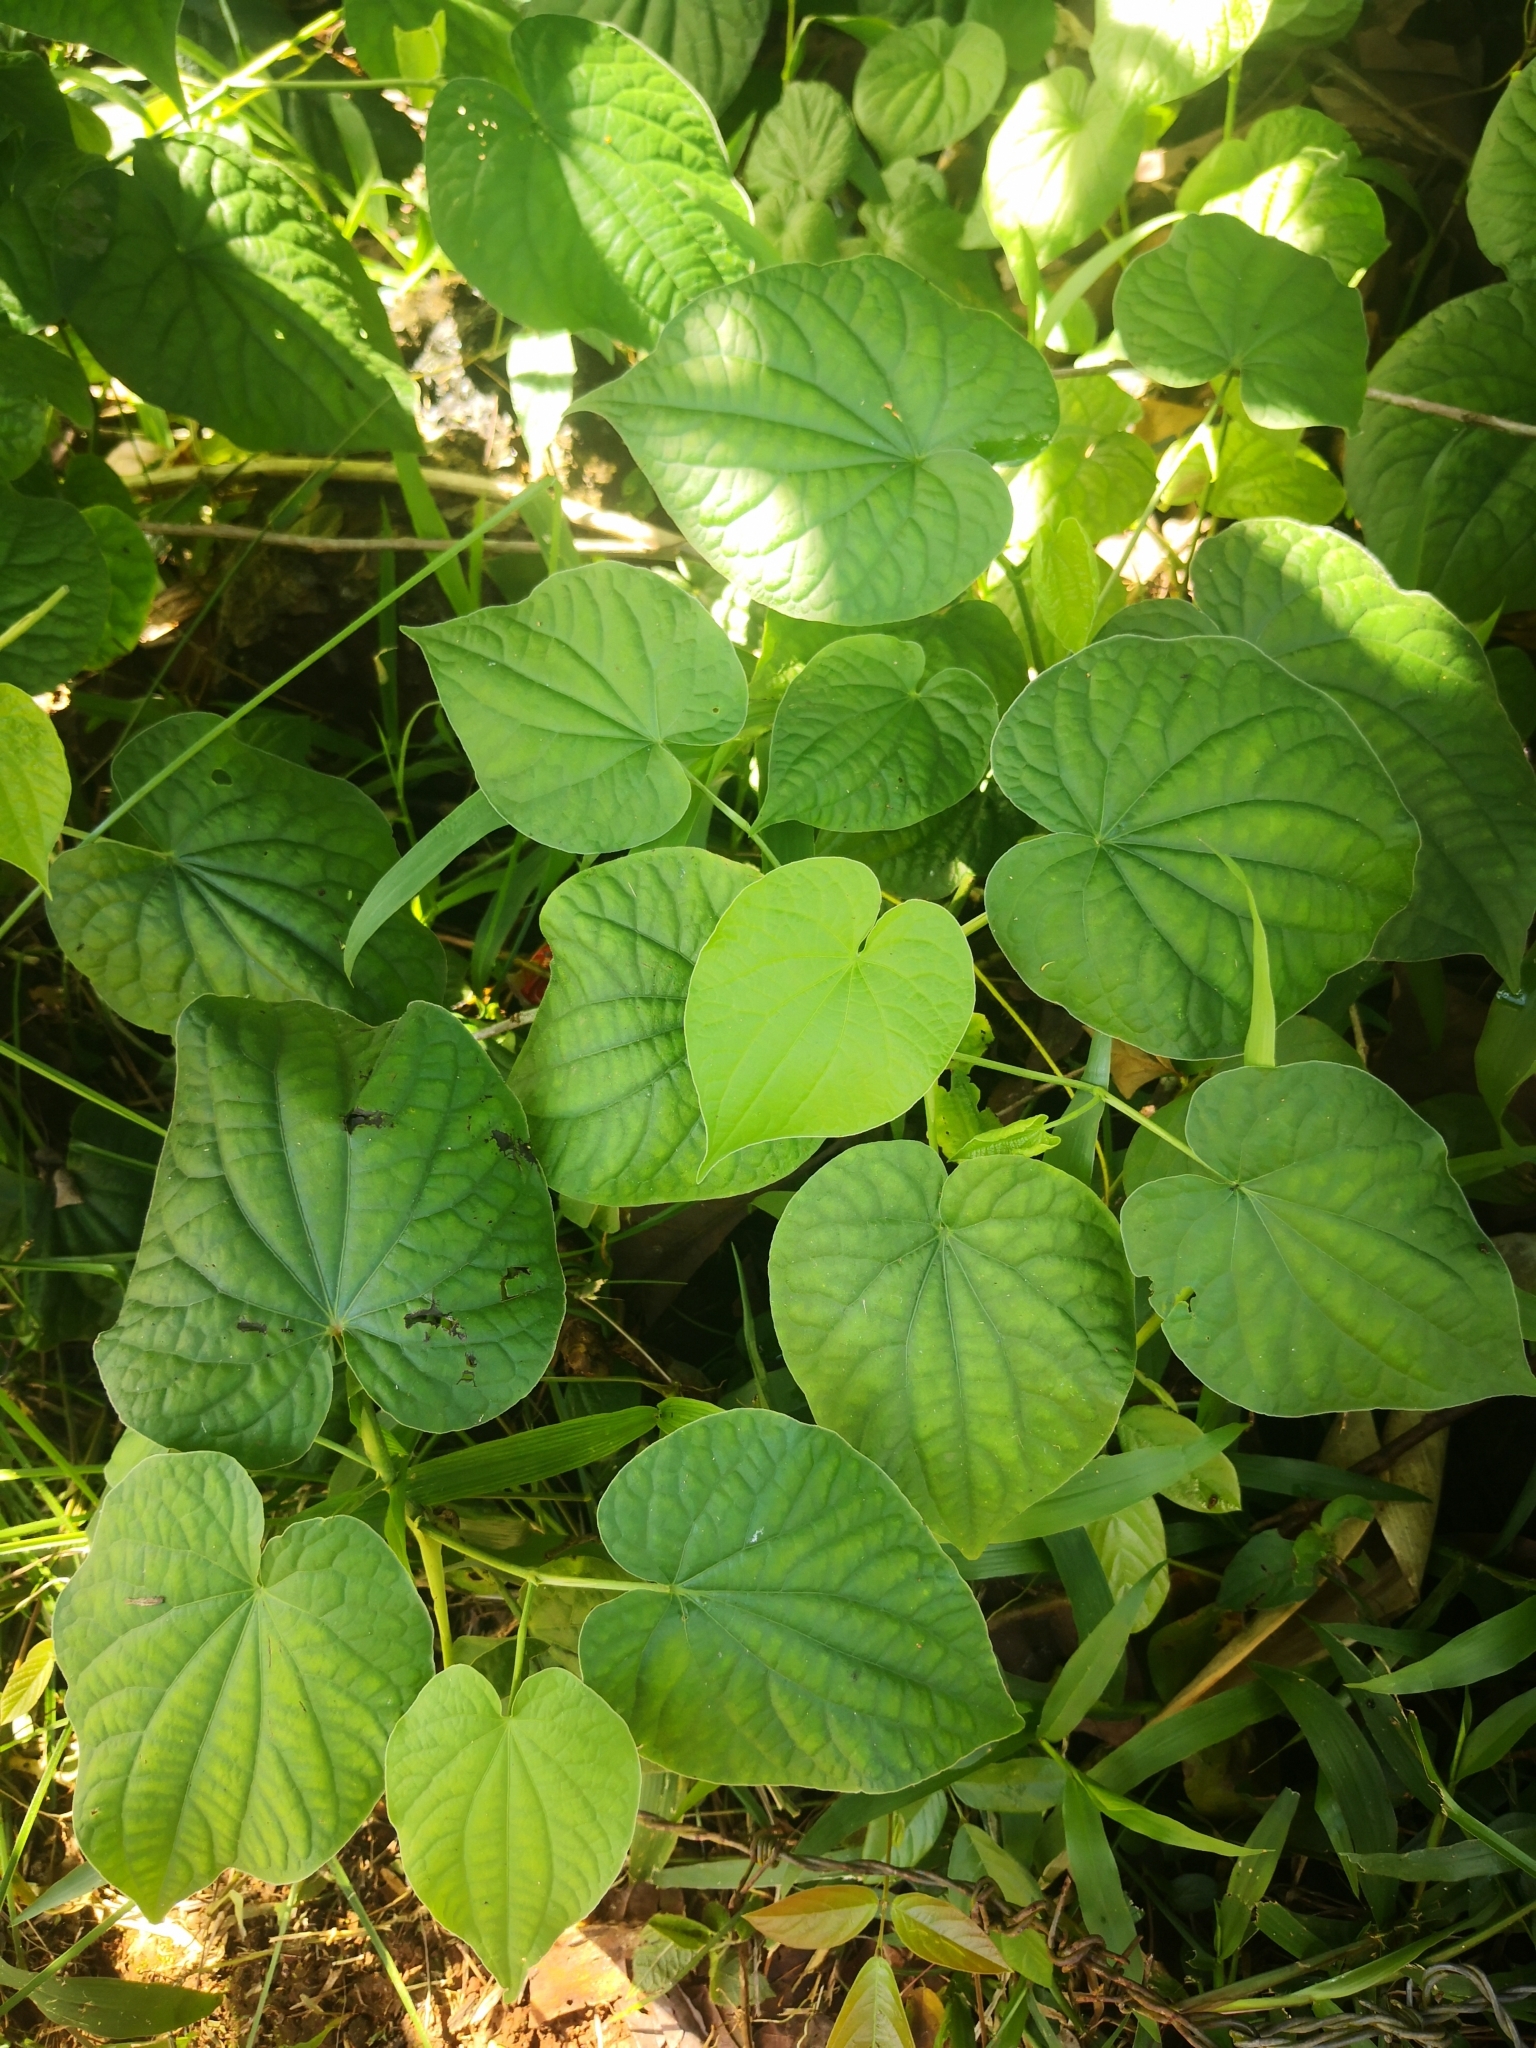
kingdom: Plantae
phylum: Tracheophyta
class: Magnoliopsida
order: Piperales
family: Piperaceae
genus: Piper
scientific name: Piper umbellatum
